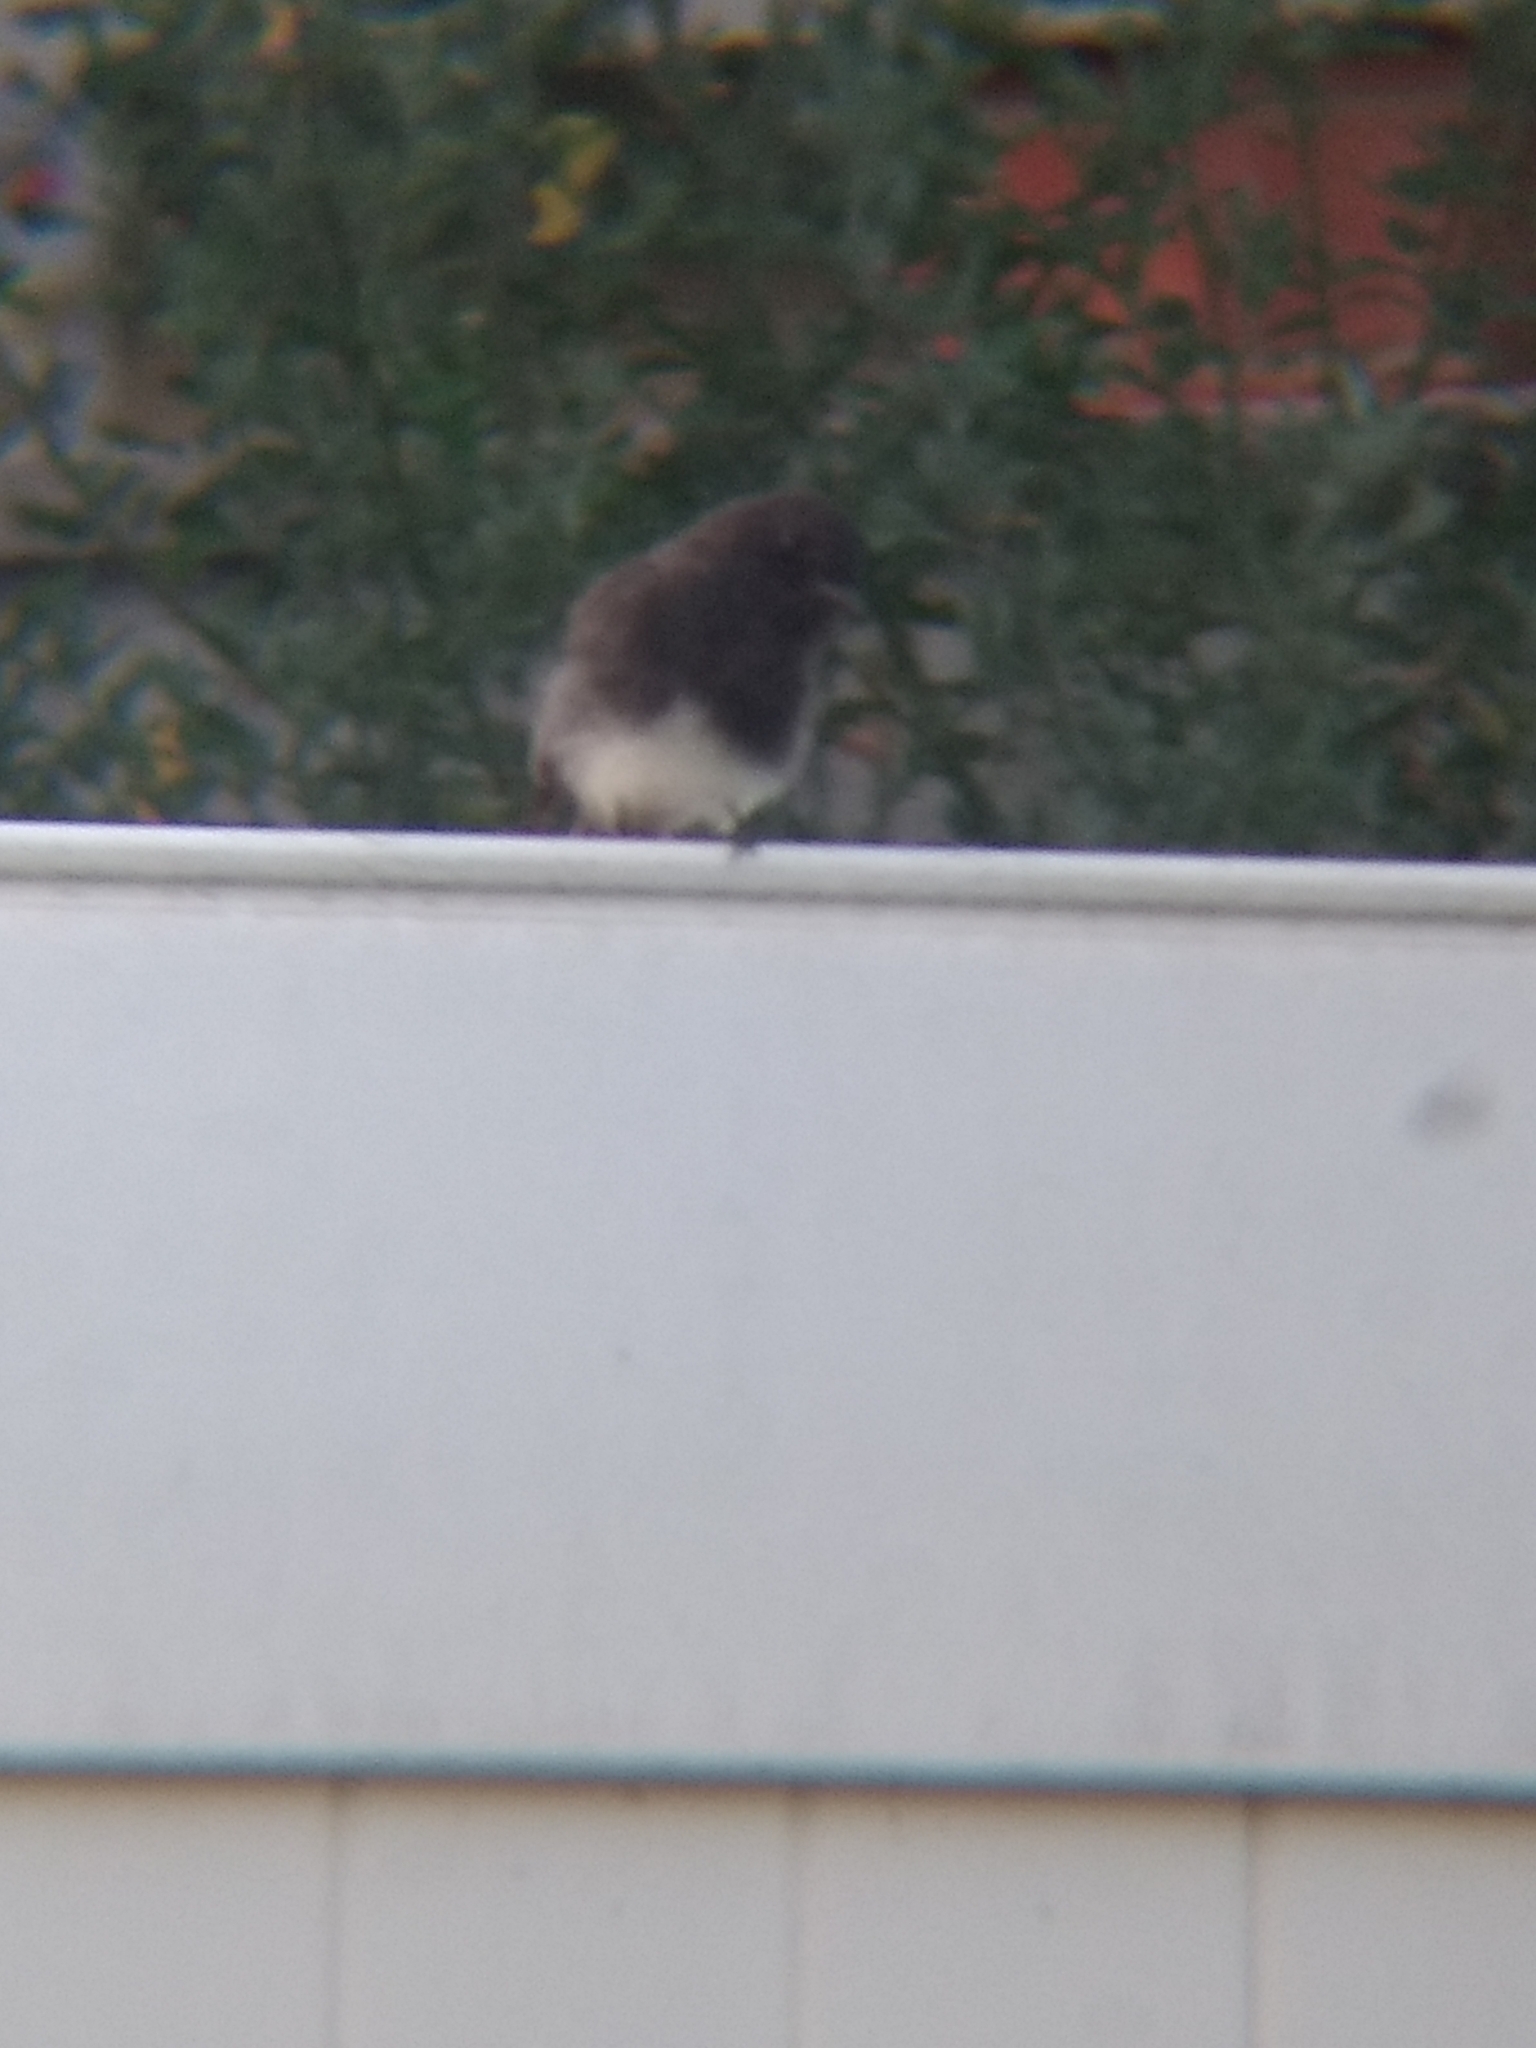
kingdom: Animalia
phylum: Chordata
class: Aves
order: Passeriformes
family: Tyrannidae
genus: Sayornis
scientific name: Sayornis nigricans
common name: Black phoebe
